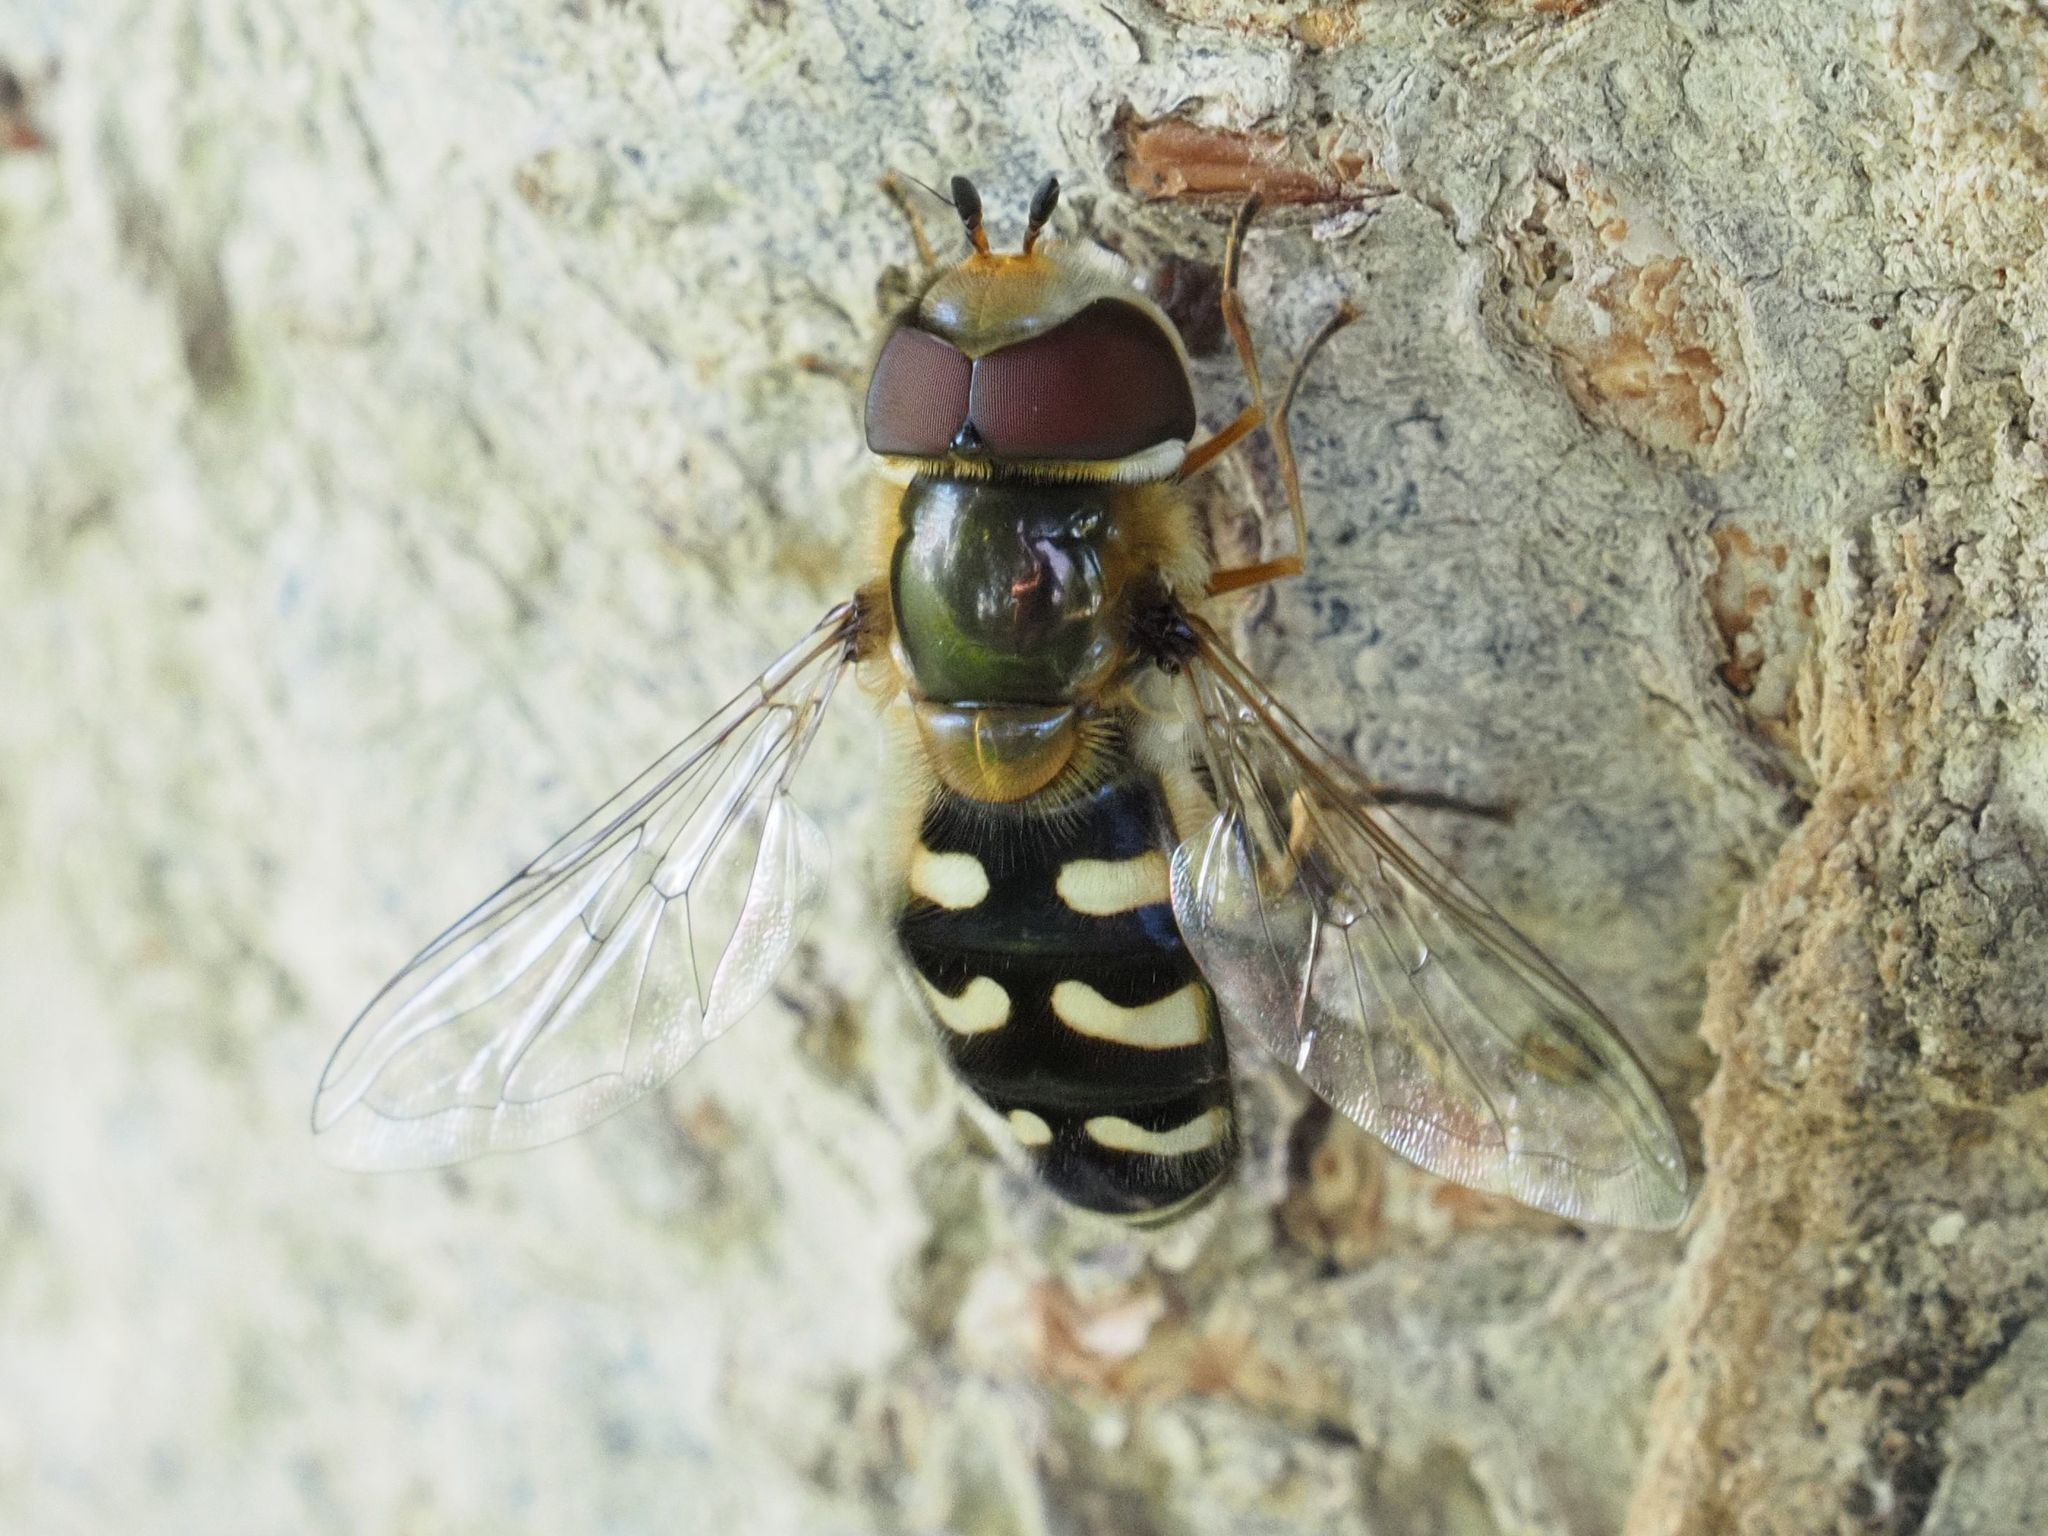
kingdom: Animalia
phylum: Arthropoda
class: Insecta
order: Diptera
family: Syrphidae
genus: Scaeva
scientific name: Scaeva pyrastri
